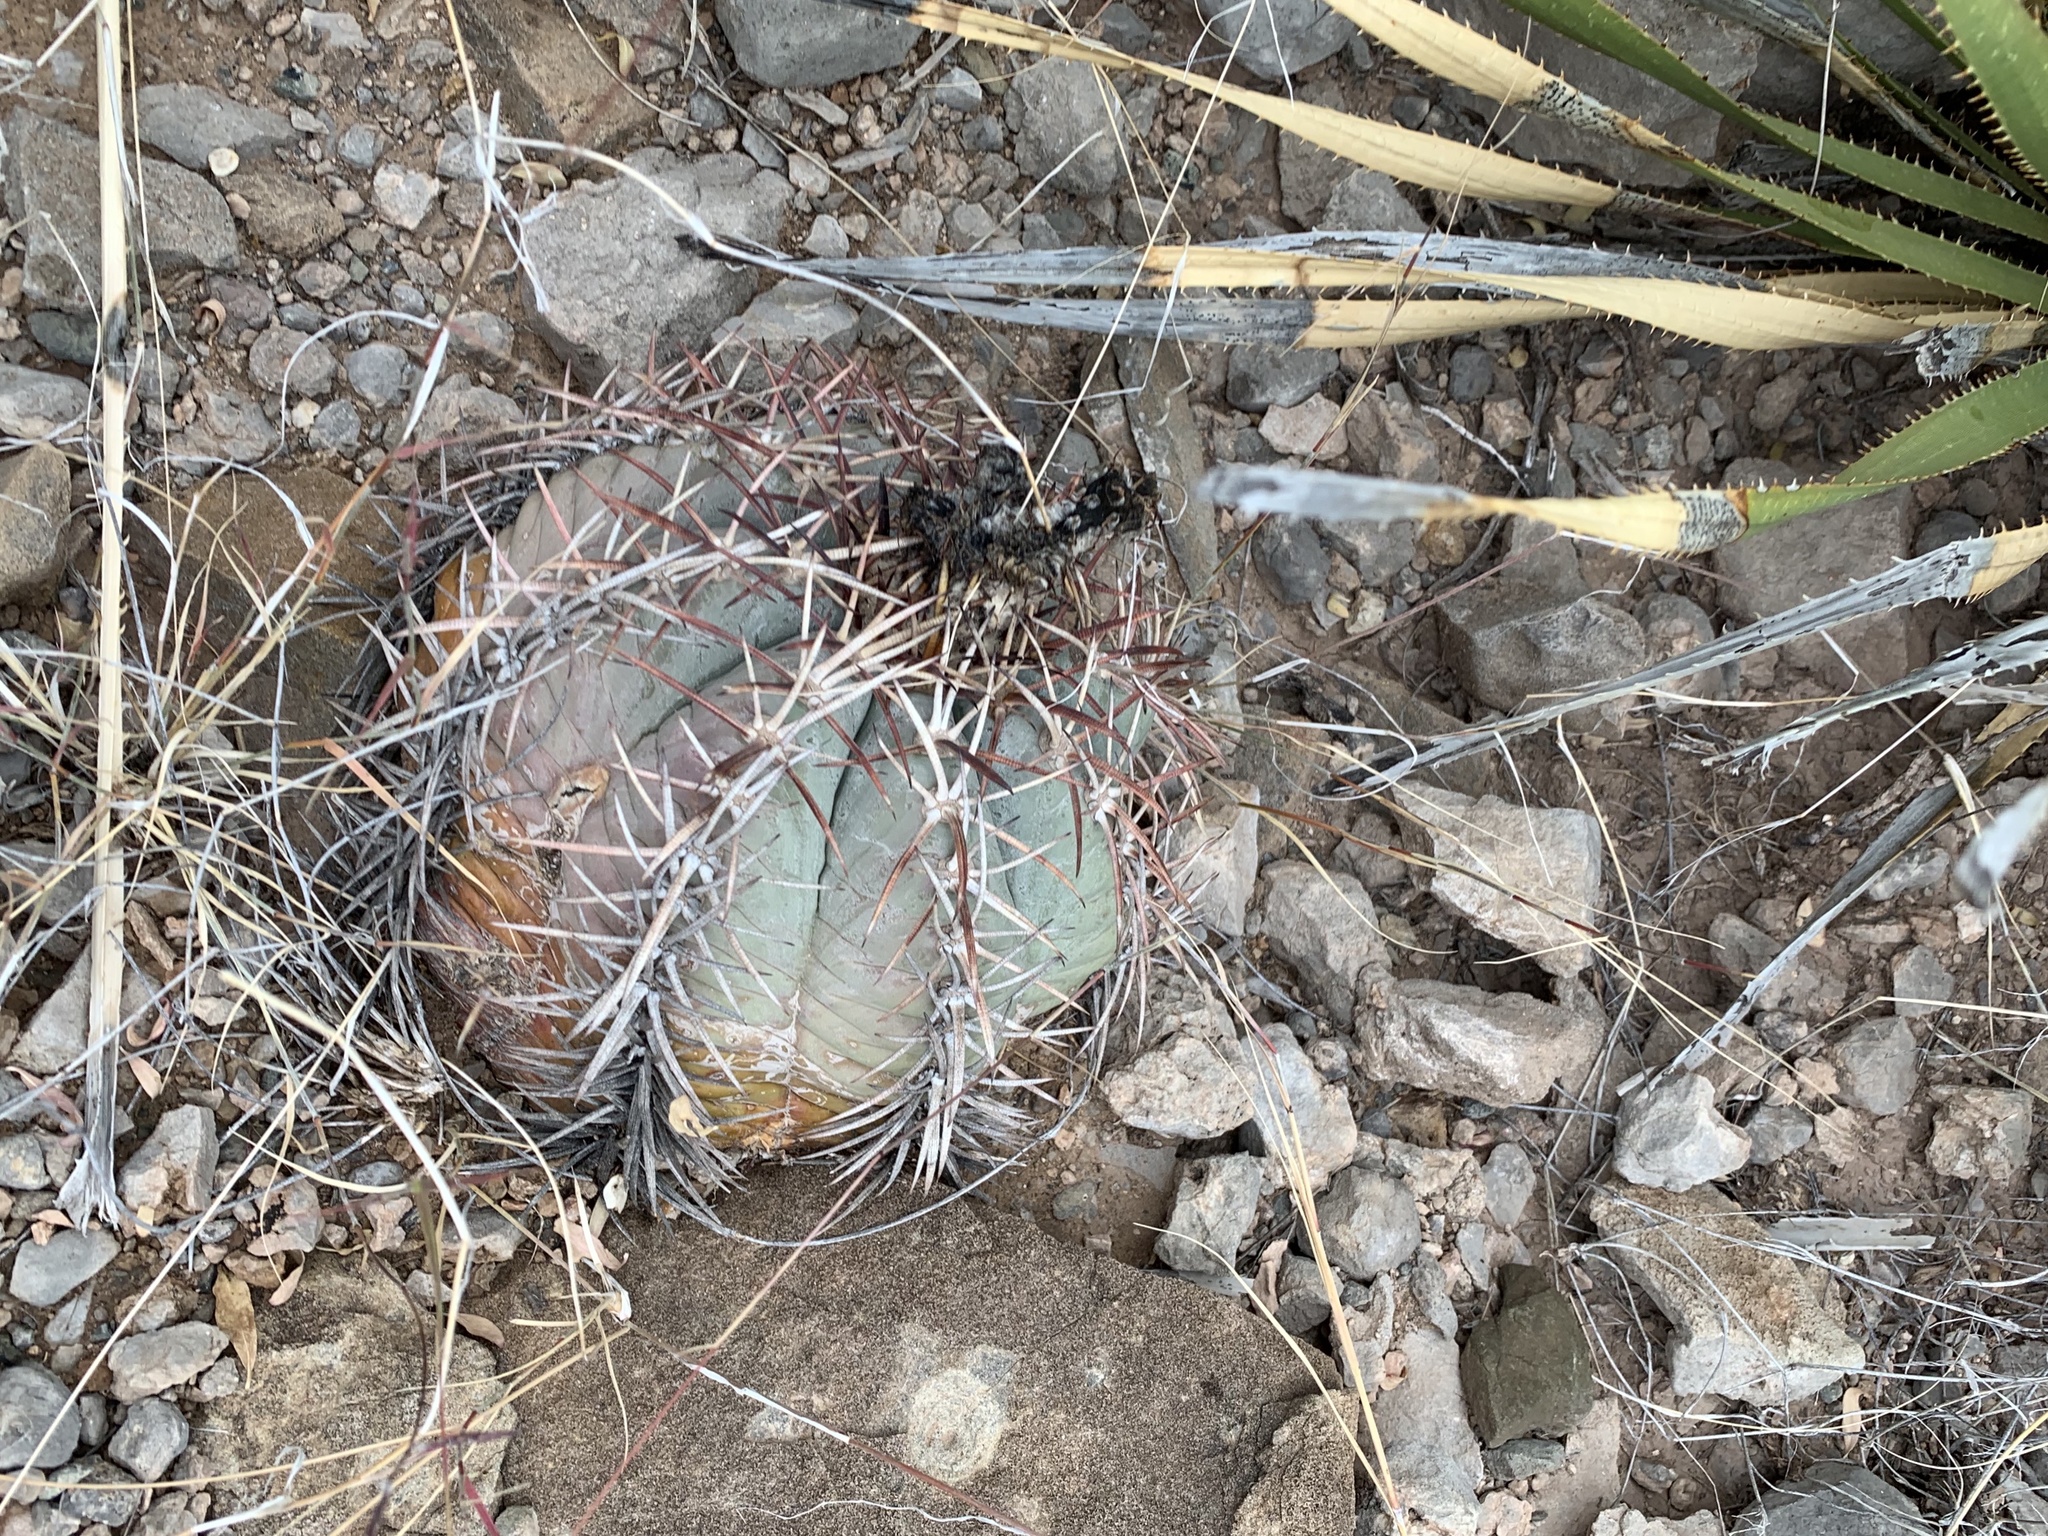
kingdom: Plantae
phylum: Tracheophyta
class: Magnoliopsida
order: Caryophyllales
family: Cactaceae
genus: Echinocactus
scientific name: Echinocactus horizonthalonius
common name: Devilshead
